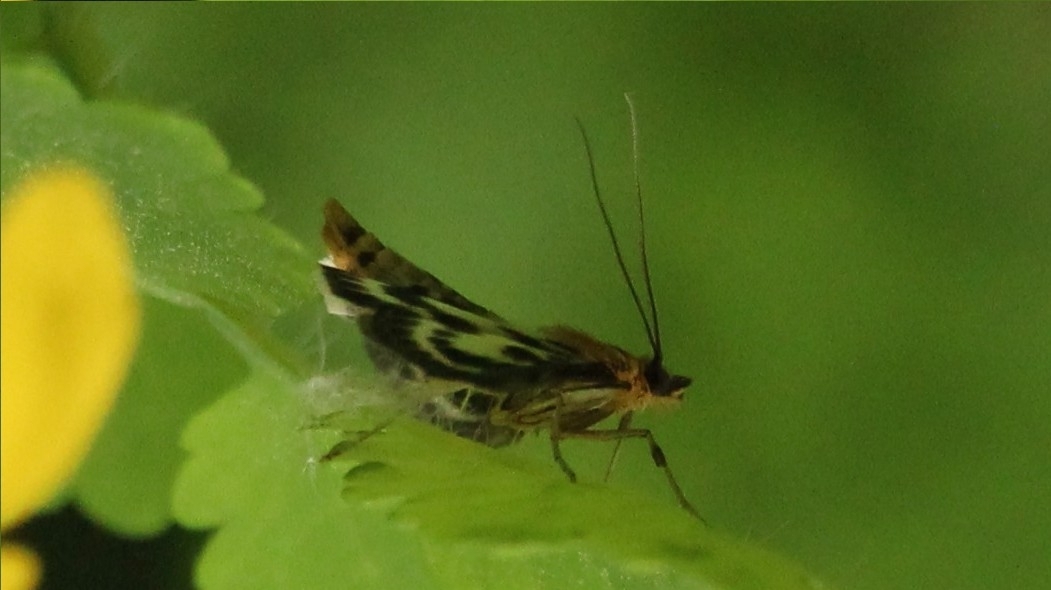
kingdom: Animalia
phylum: Arthropoda
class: Insecta
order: Lepidoptera
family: Crambidae
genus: Anania
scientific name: Anania hortulata
